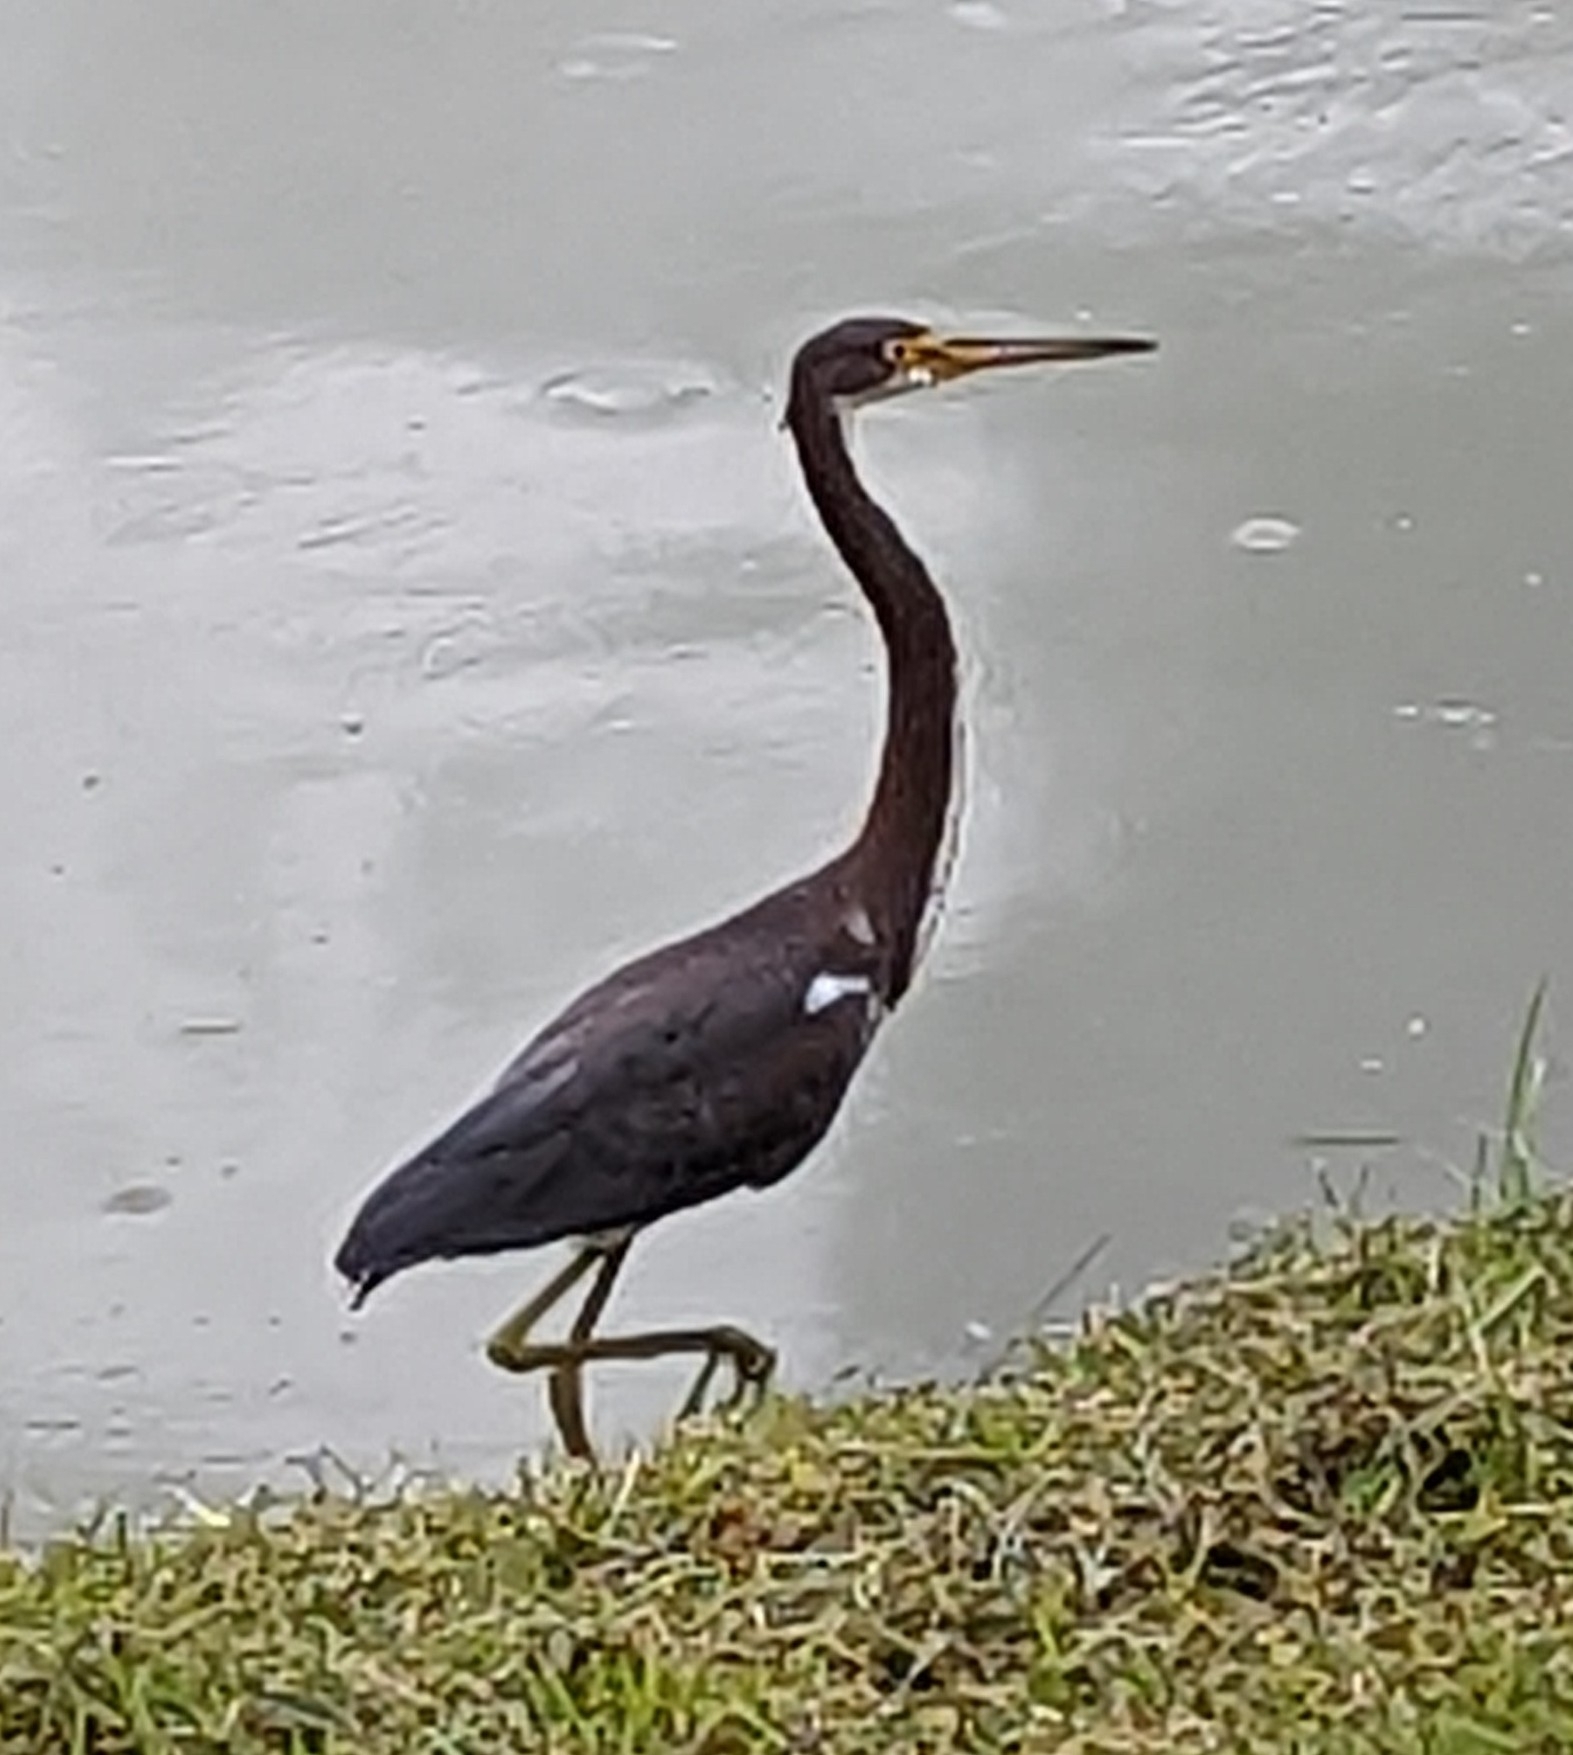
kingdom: Animalia
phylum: Chordata
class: Aves
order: Pelecaniformes
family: Ardeidae
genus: Egretta
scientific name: Egretta tricolor
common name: Tricolored heron
